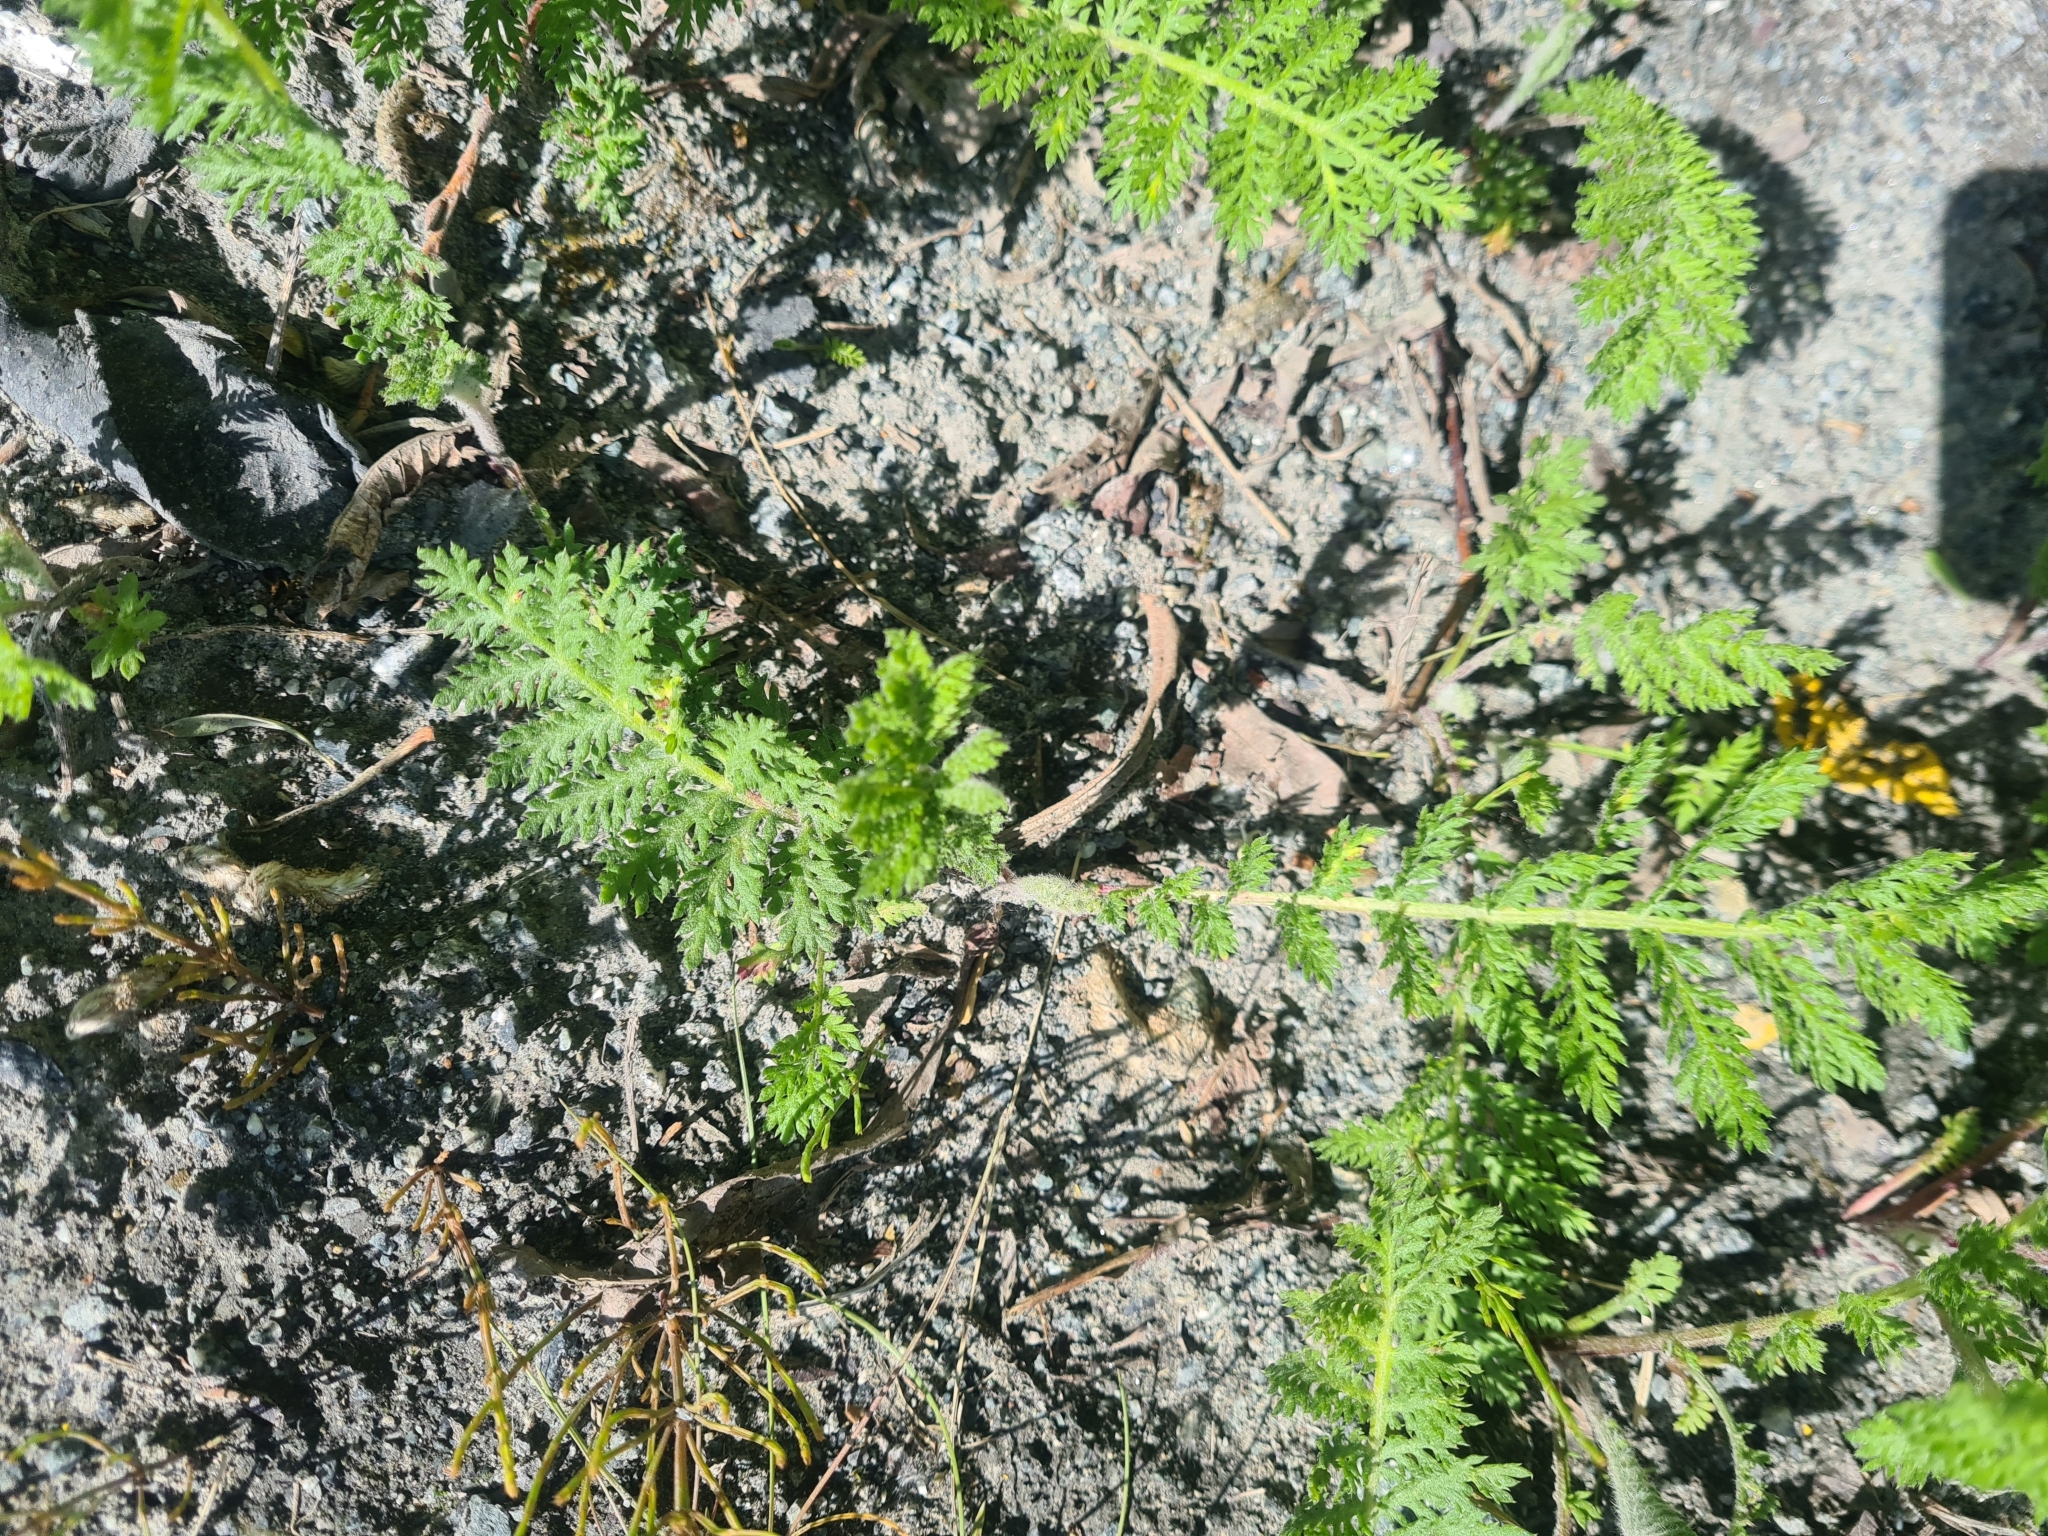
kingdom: Plantae
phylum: Tracheophyta
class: Magnoliopsida
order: Asterales
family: Asteraceae
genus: Tanacetum
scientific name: Tanacetum bipinnatum
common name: Dwarf tansy
